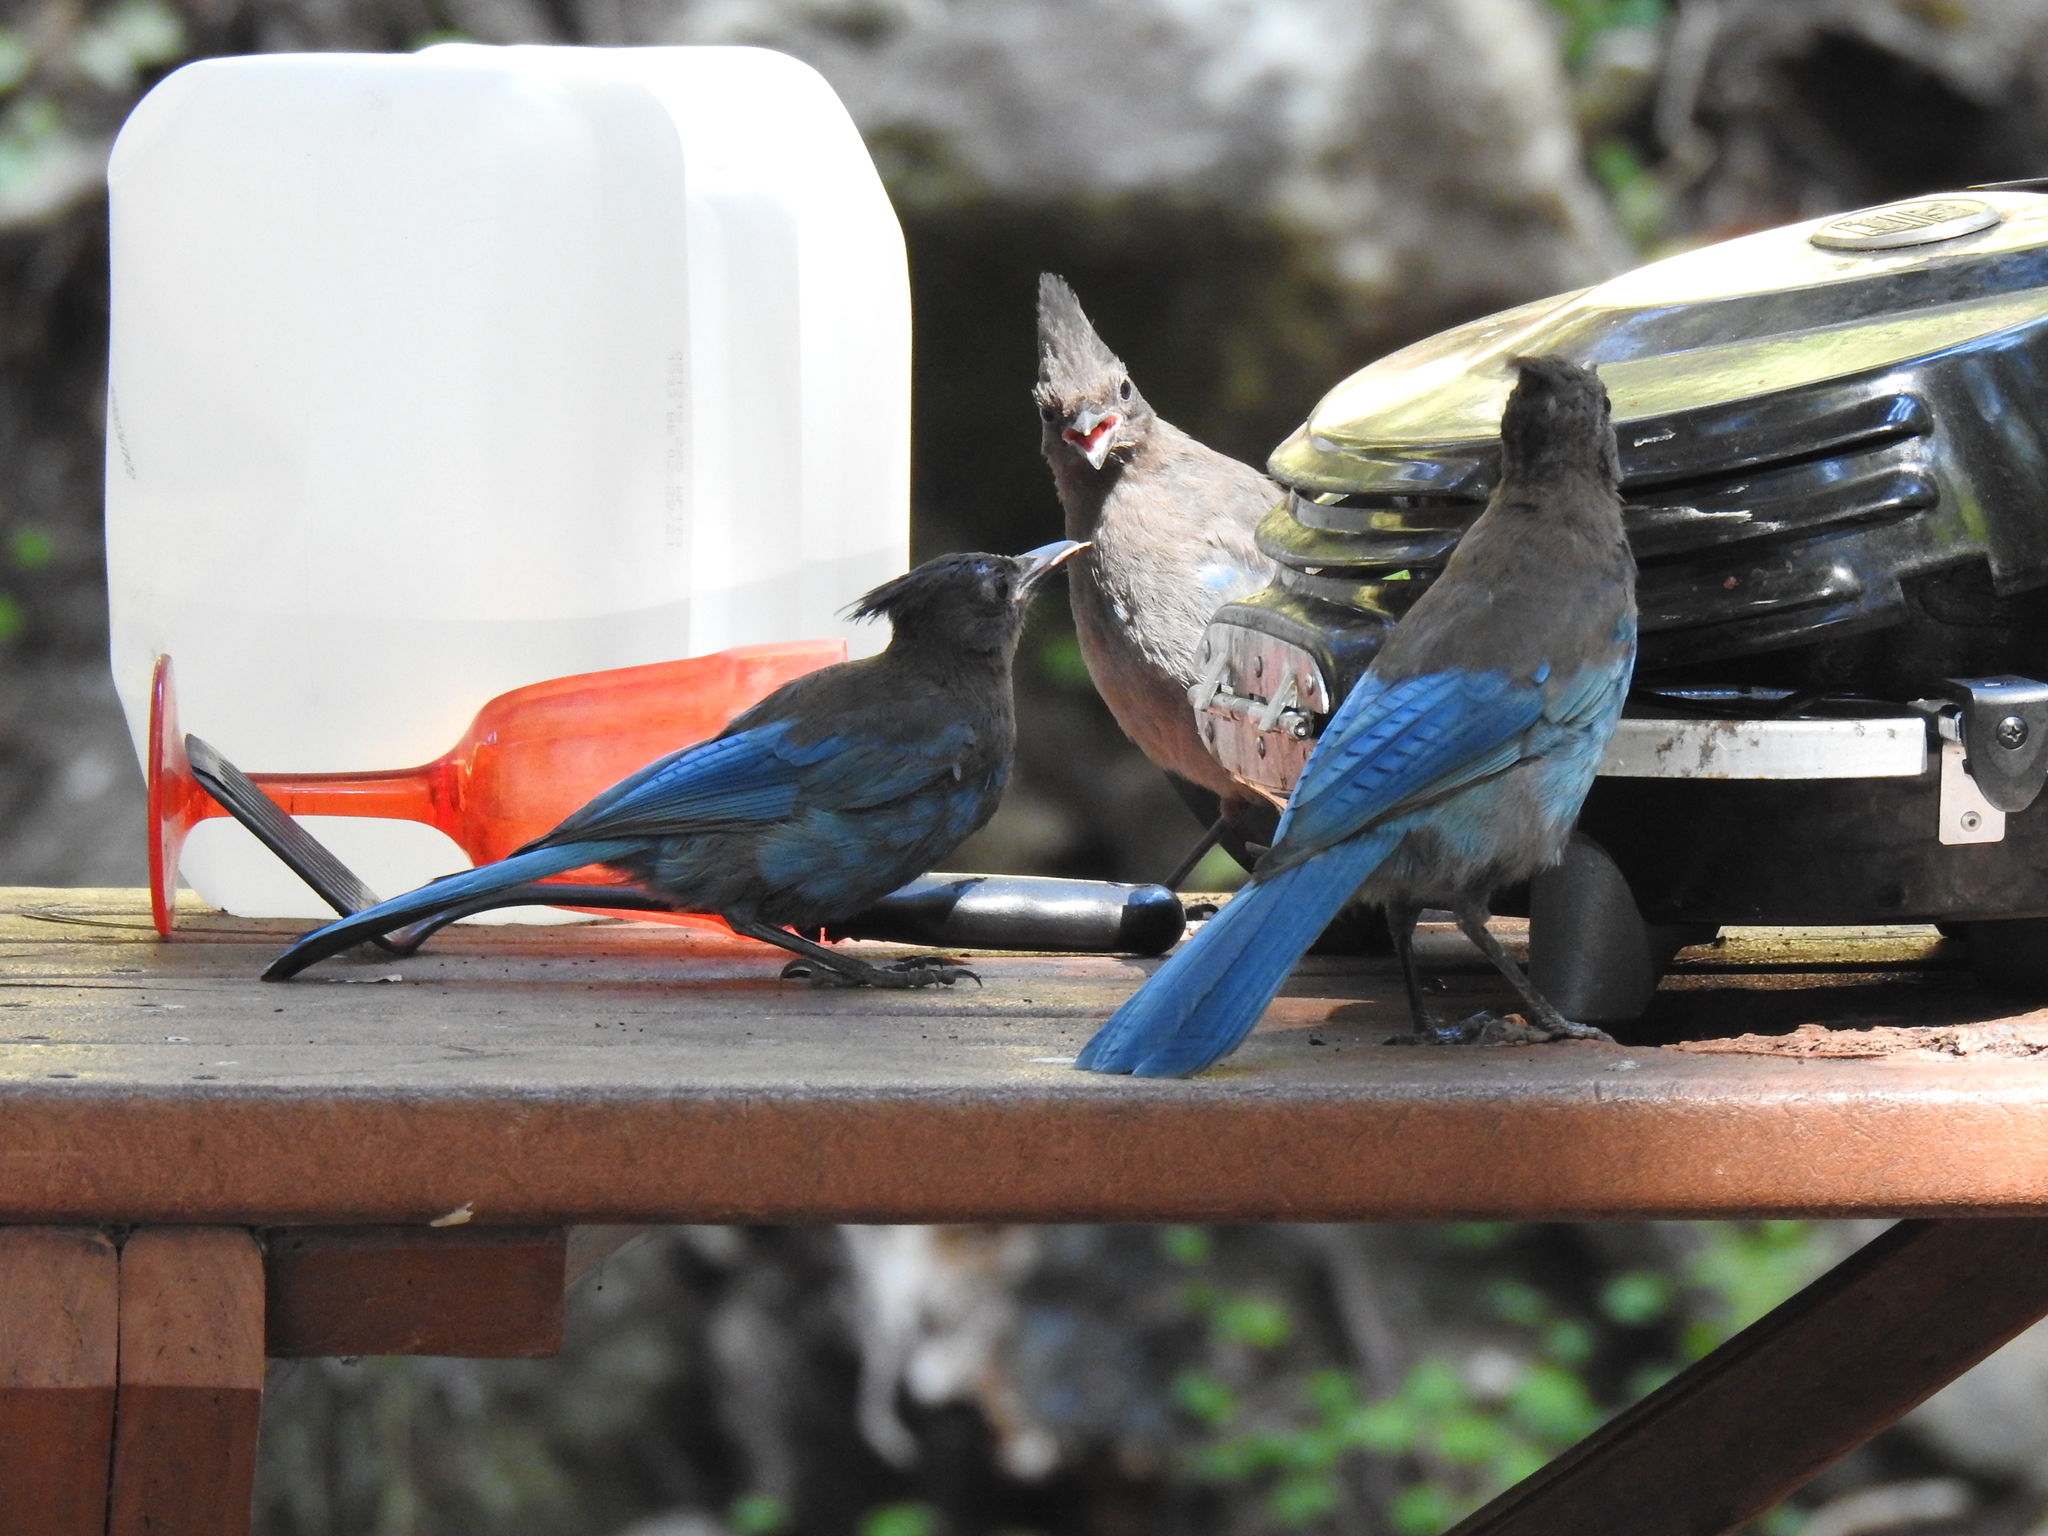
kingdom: Animalia
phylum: Chordata
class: Aves
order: Passeriformes
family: Corvidae
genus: Cyanocitta
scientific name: Cyanocitta stelleri
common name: Steller's jay
